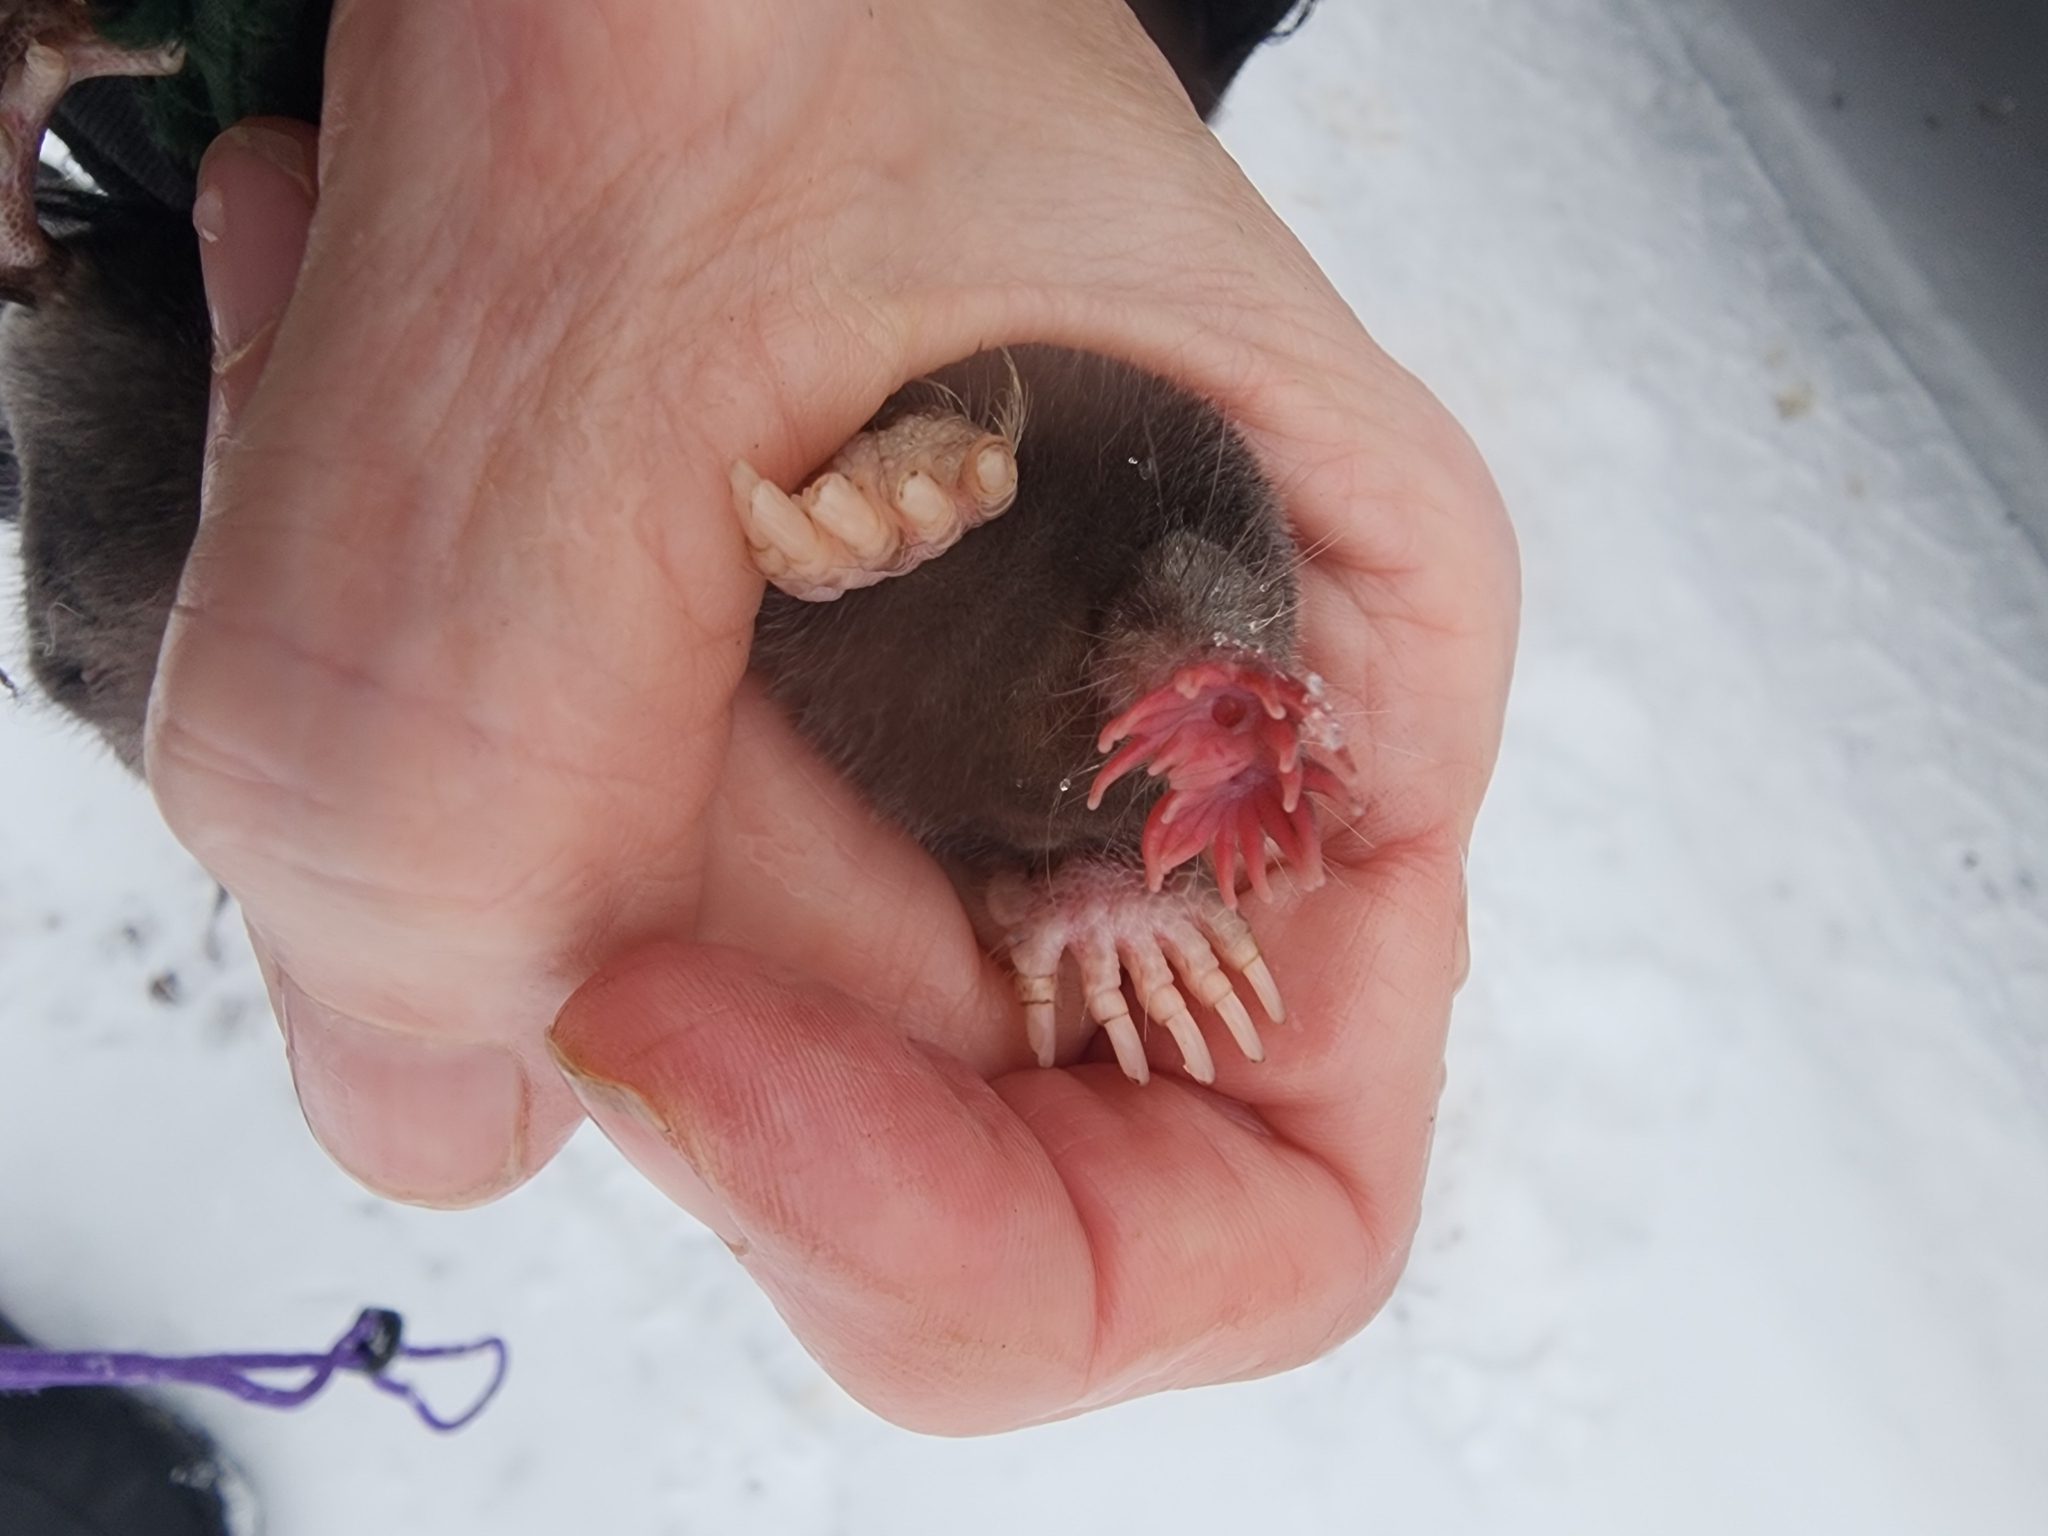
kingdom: Animalia
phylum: Chordata
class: Mammalia
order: Soricomorpha
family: Talpidae
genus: Condylura
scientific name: Condylura cristata
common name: Star-nosed mole
